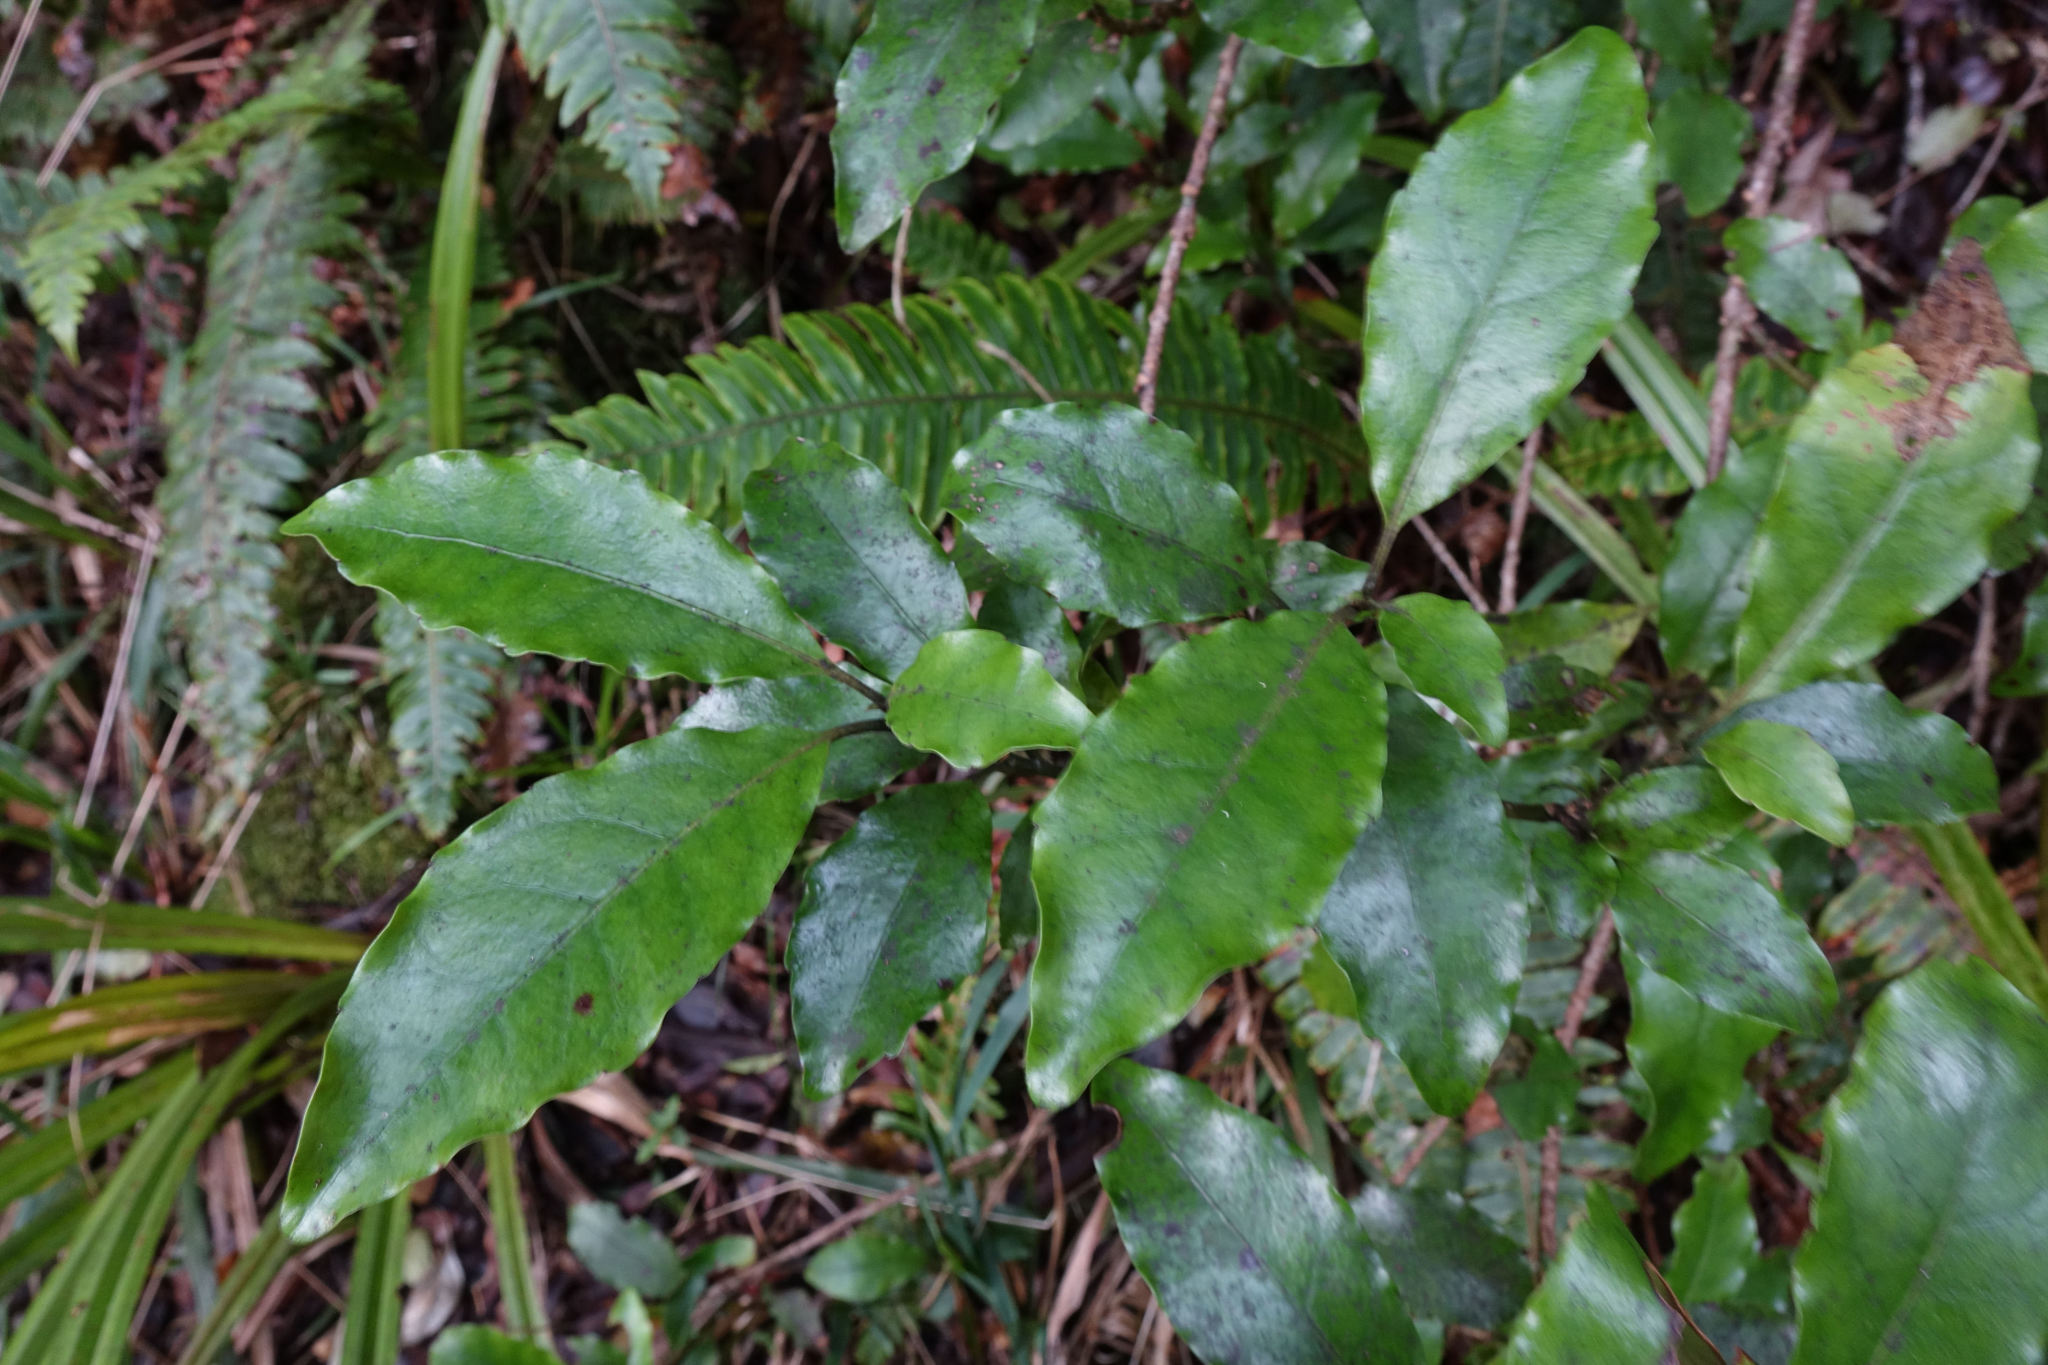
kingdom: Plantae
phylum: Tracheophyta
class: Magnoliopsida
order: Asterales
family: Alseuosmiaceae
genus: Alseuosmia
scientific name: Alseuosmia macrophylla
